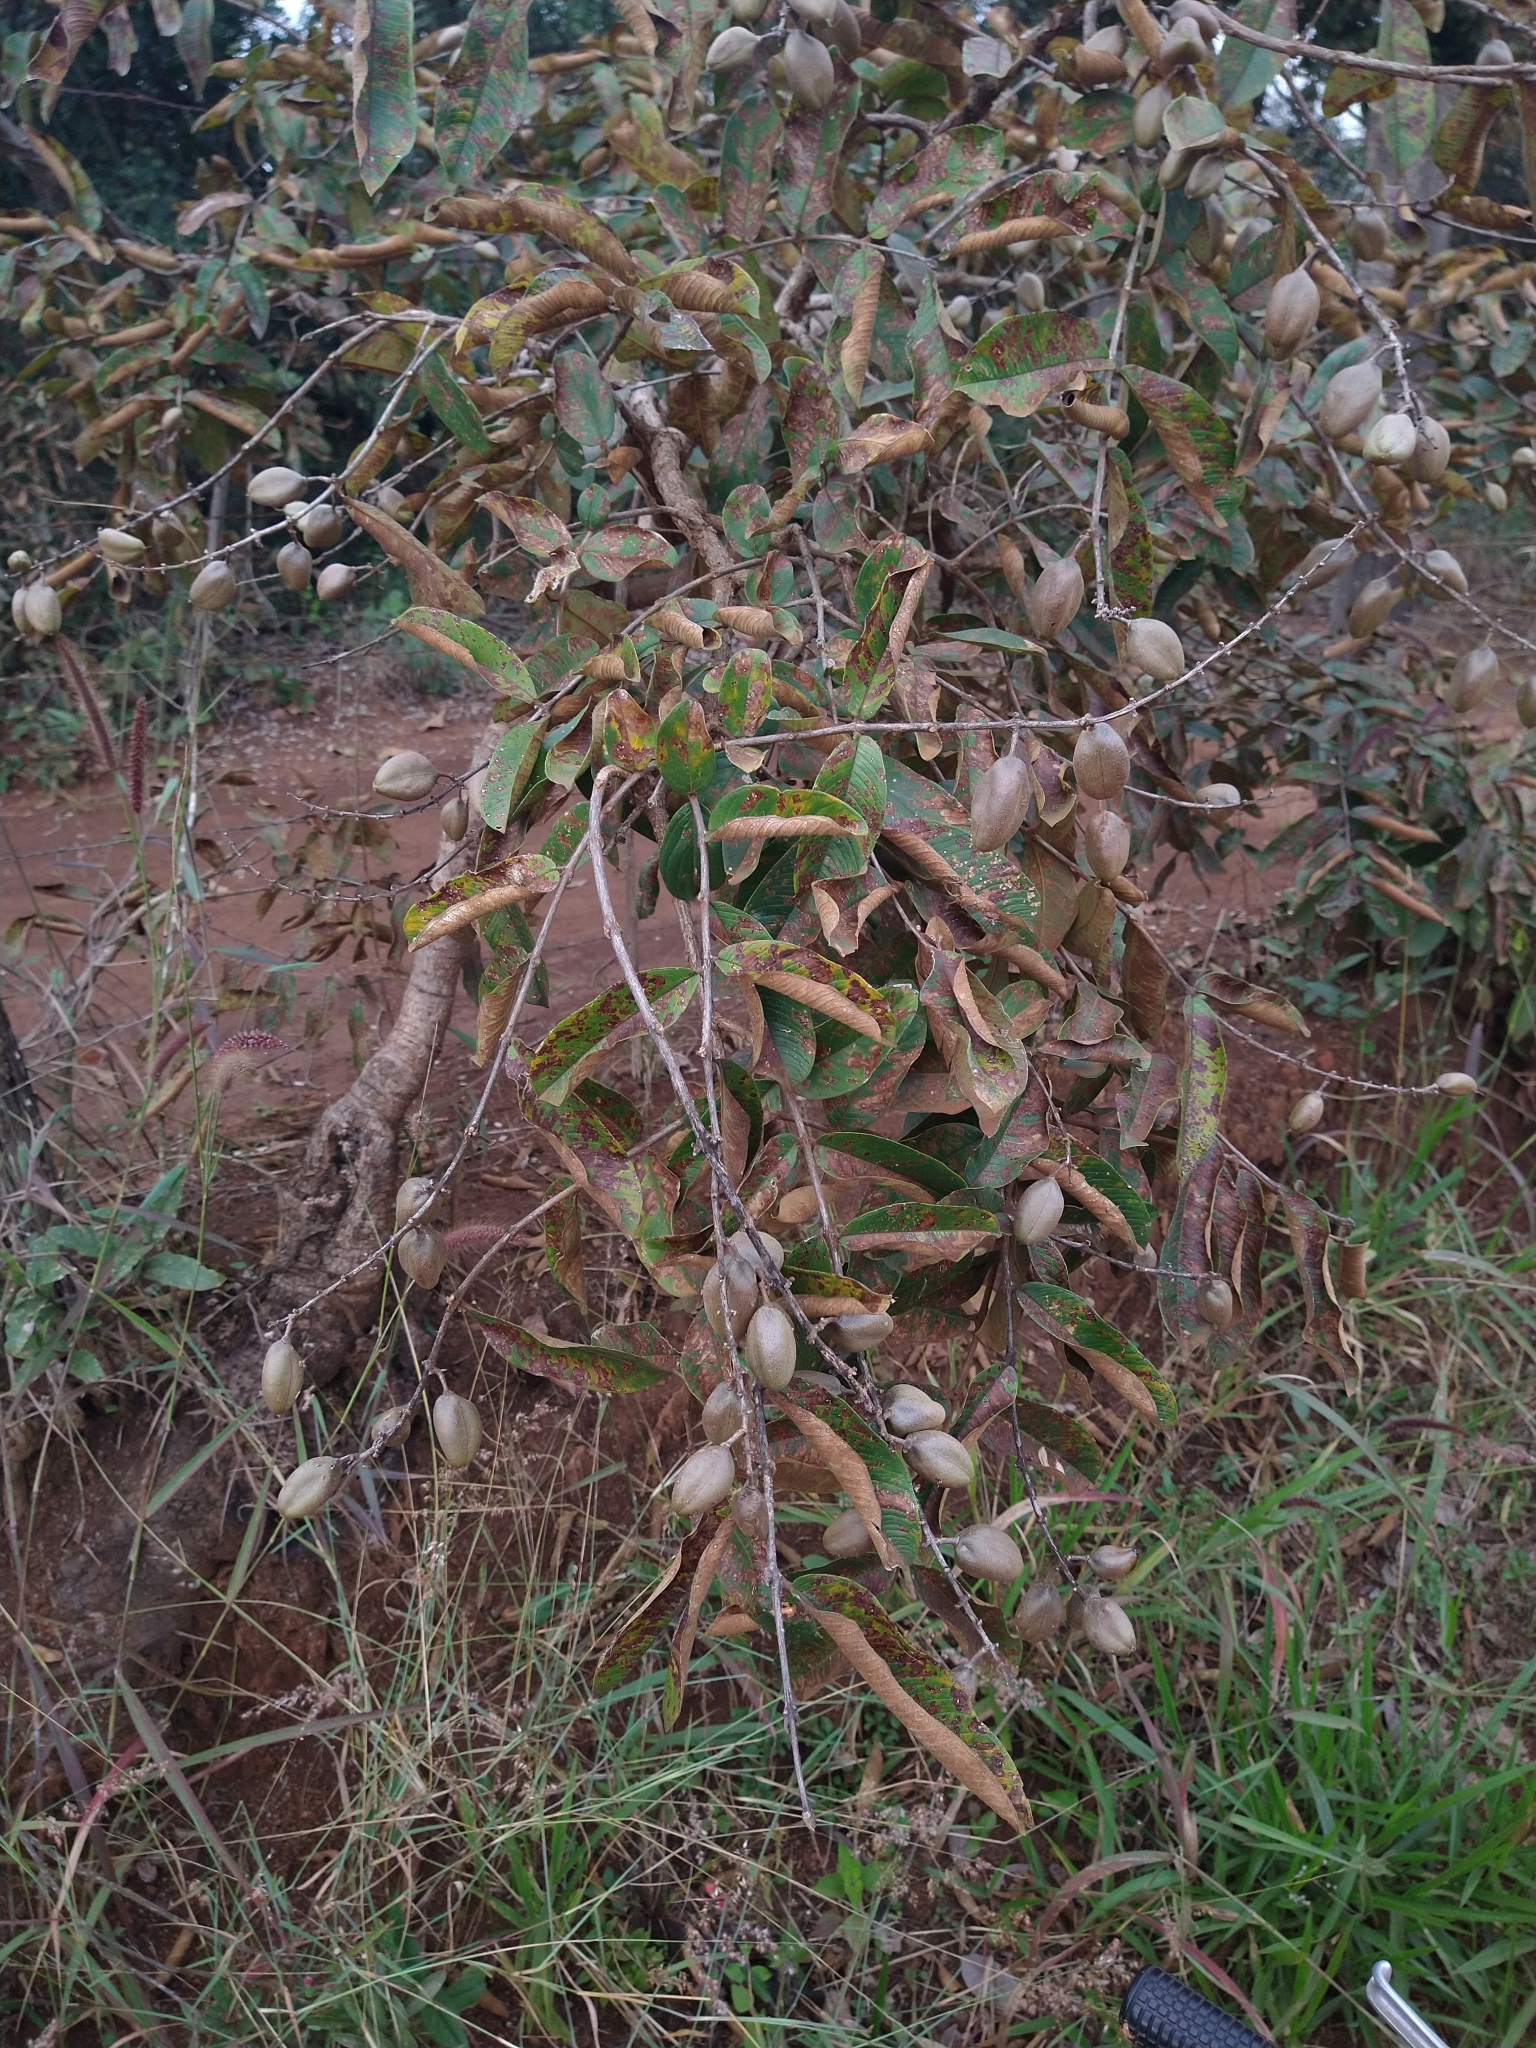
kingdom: Plantae
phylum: Tracheophyta
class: Magnoliopsida
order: Myrtales
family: Vochysiaceae
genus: Qualea
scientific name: Qualea multiflora
